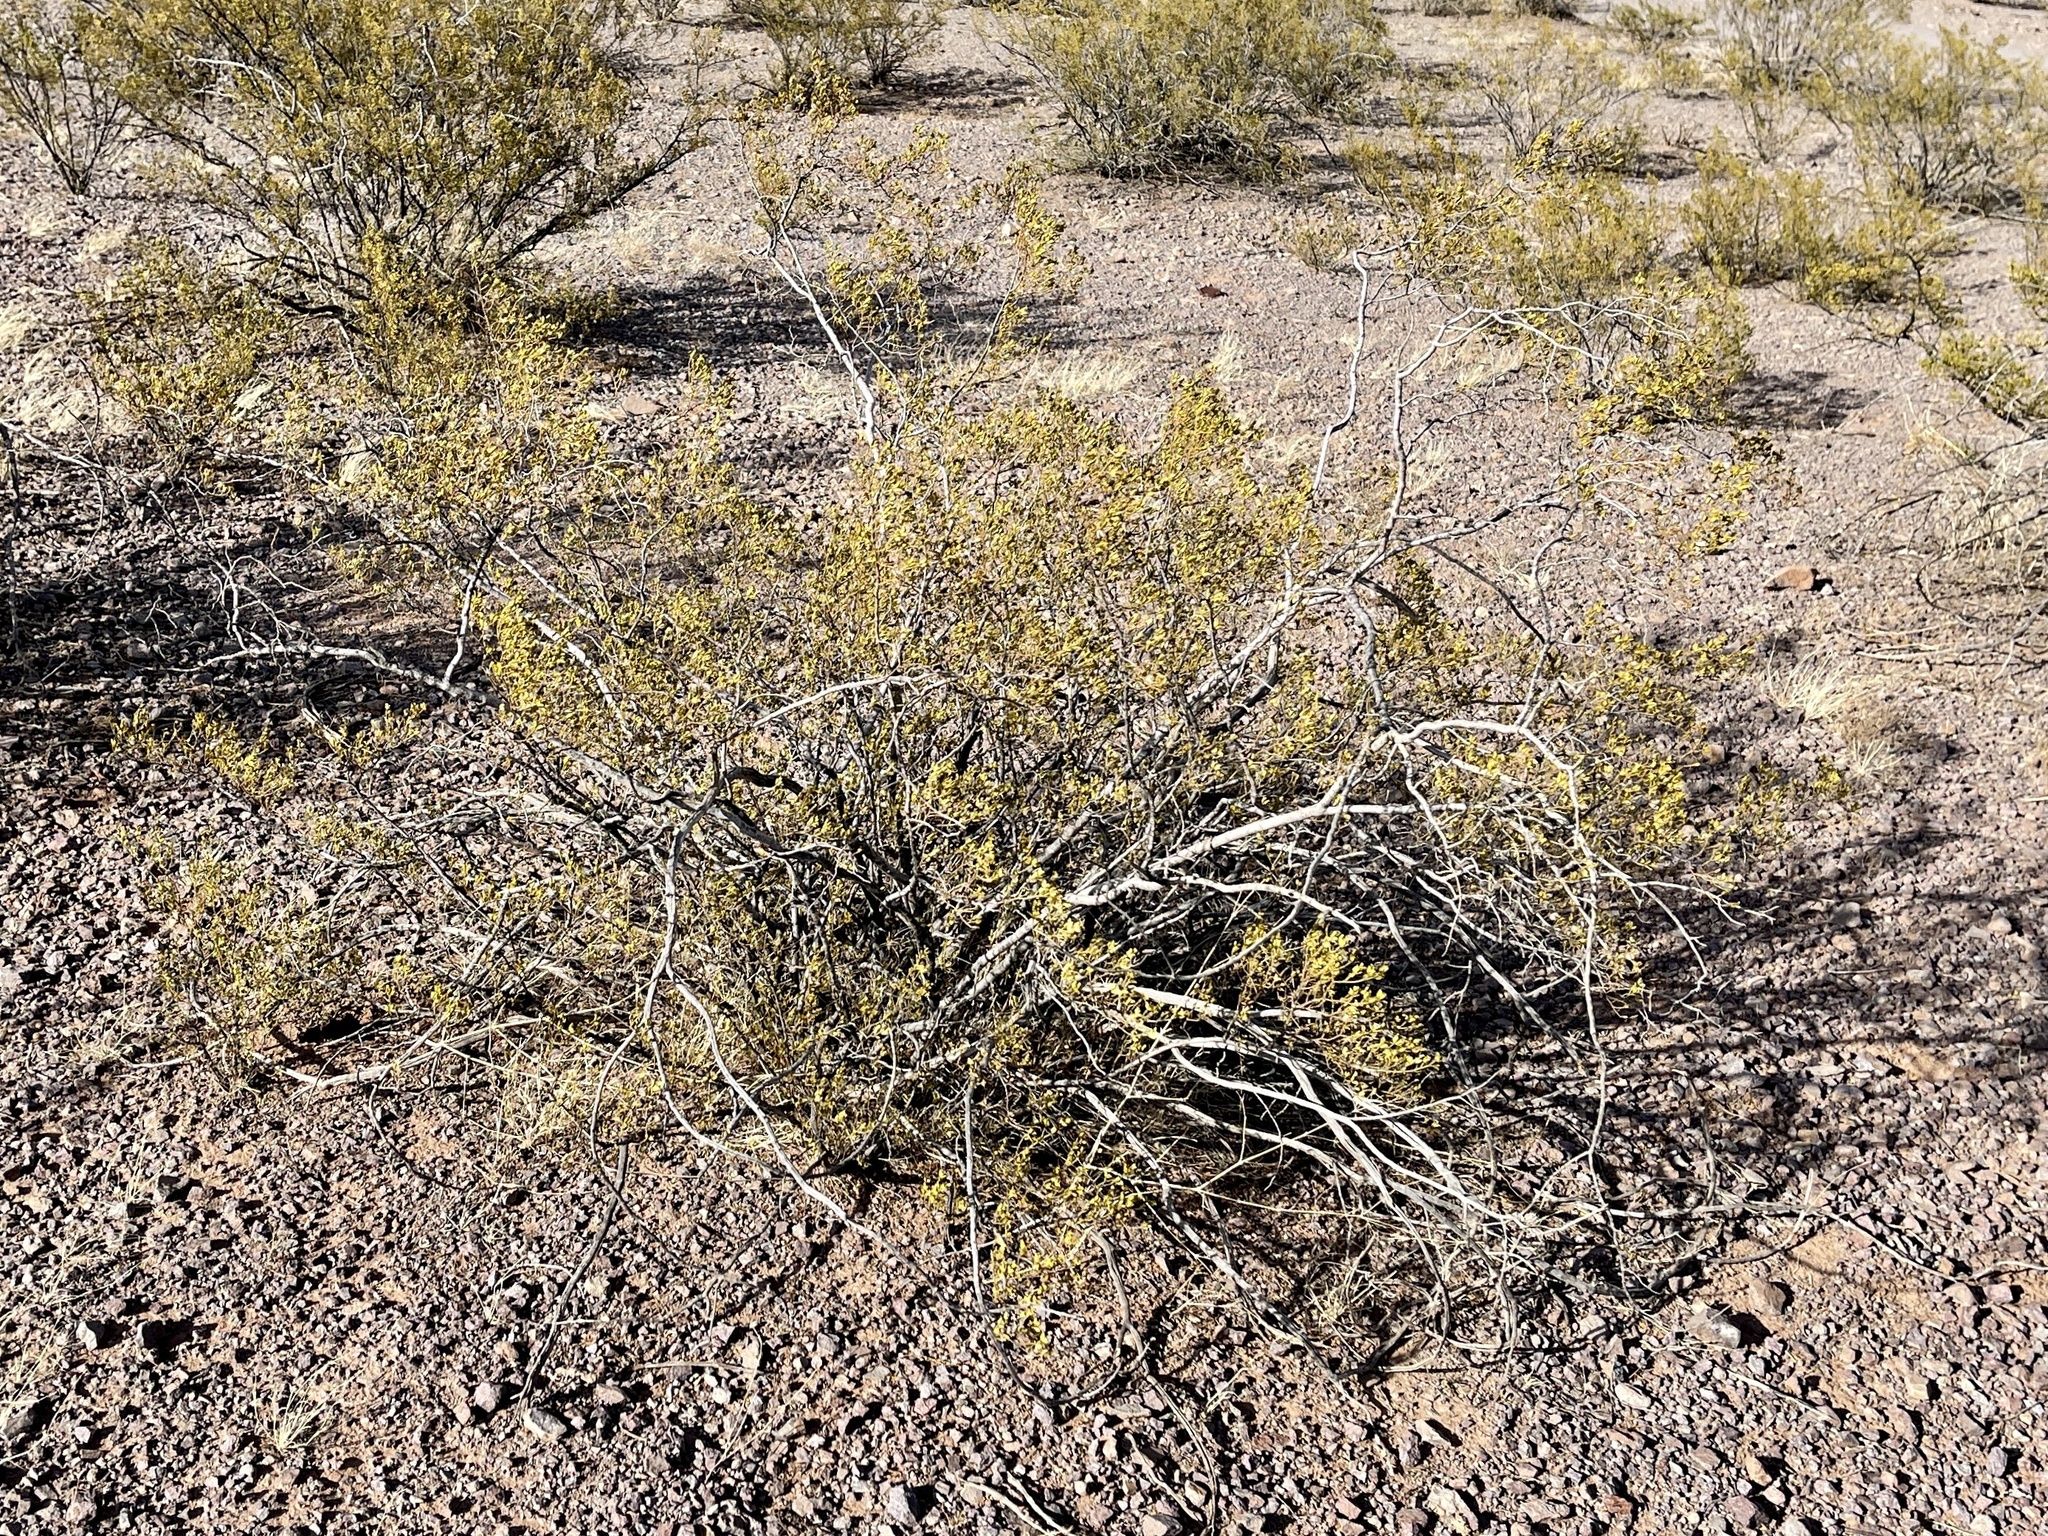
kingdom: Plantae
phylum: Tracheophyta
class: Magnoliopsida
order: Zygophyllales
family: Zygophyllaceae
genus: Larrea
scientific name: Larrea tridentata
